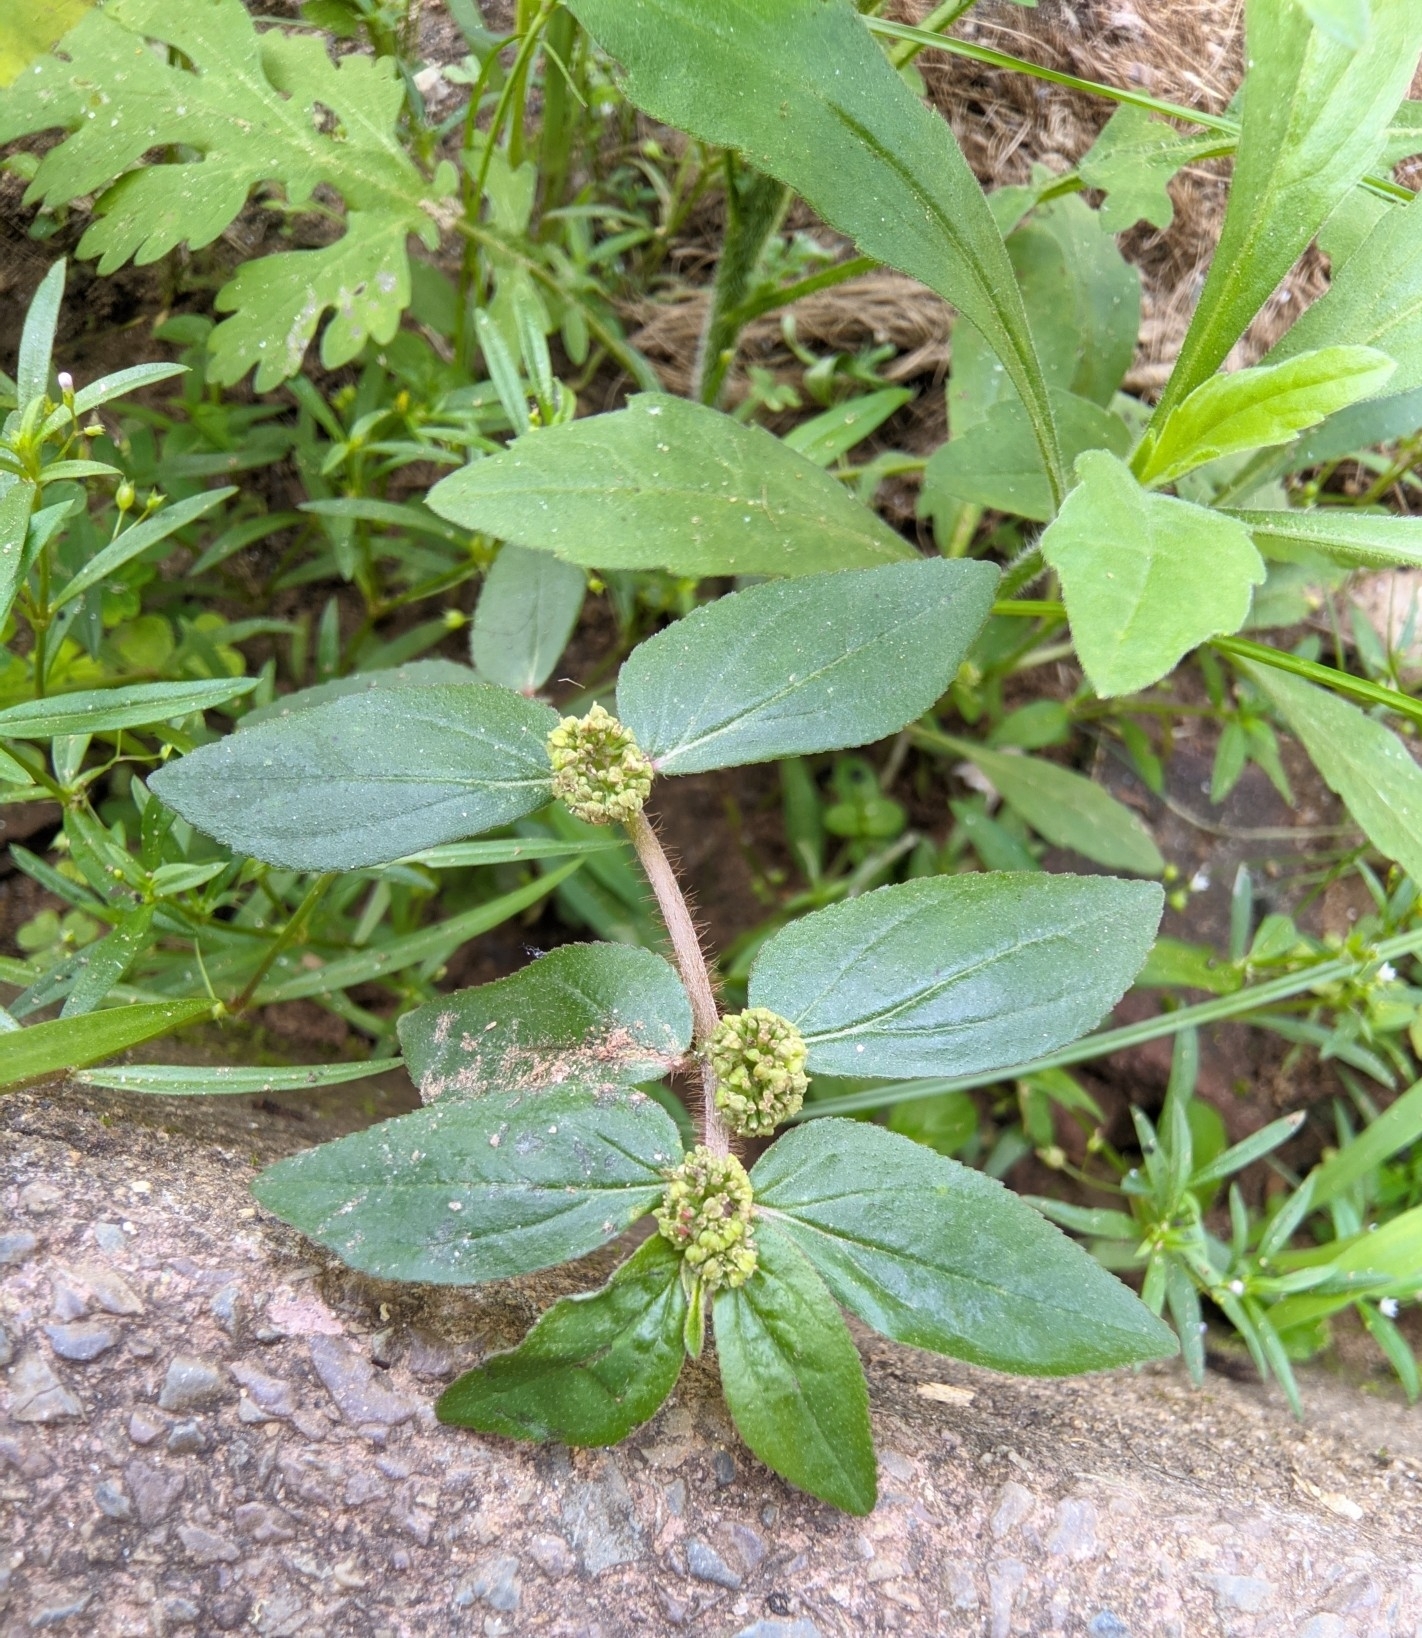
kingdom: Plantae
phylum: Tracheophyta
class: Magnoliopsida
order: Malpighiales
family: Euphorbiaceae
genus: Euphorbia
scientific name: Euphorbia hirta
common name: Pillpod sandmat
